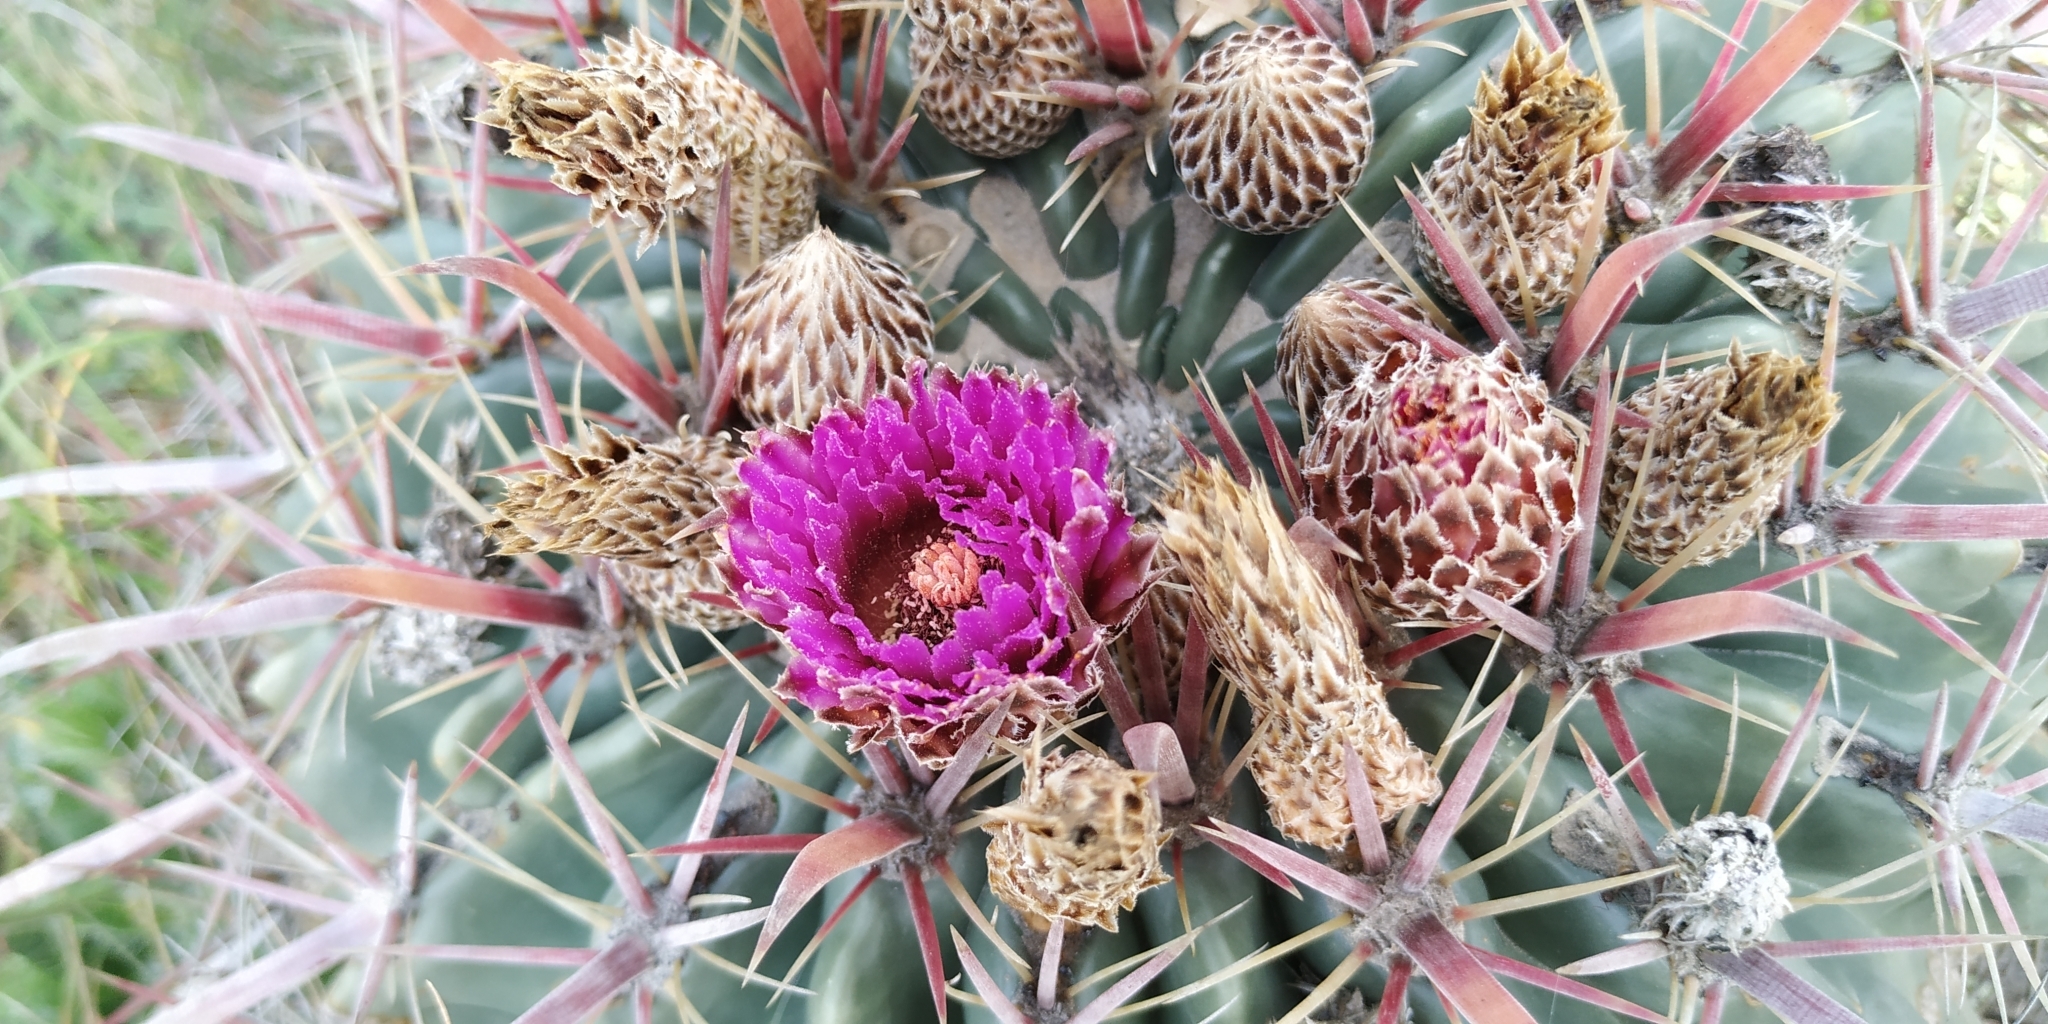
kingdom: Plantae
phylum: Tracheophyta
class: Magnoliopsida
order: Caryophyllales
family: Cactaceae
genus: Ferocactus
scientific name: Ferocactus latispinus
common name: Devil's-tongue cactus
